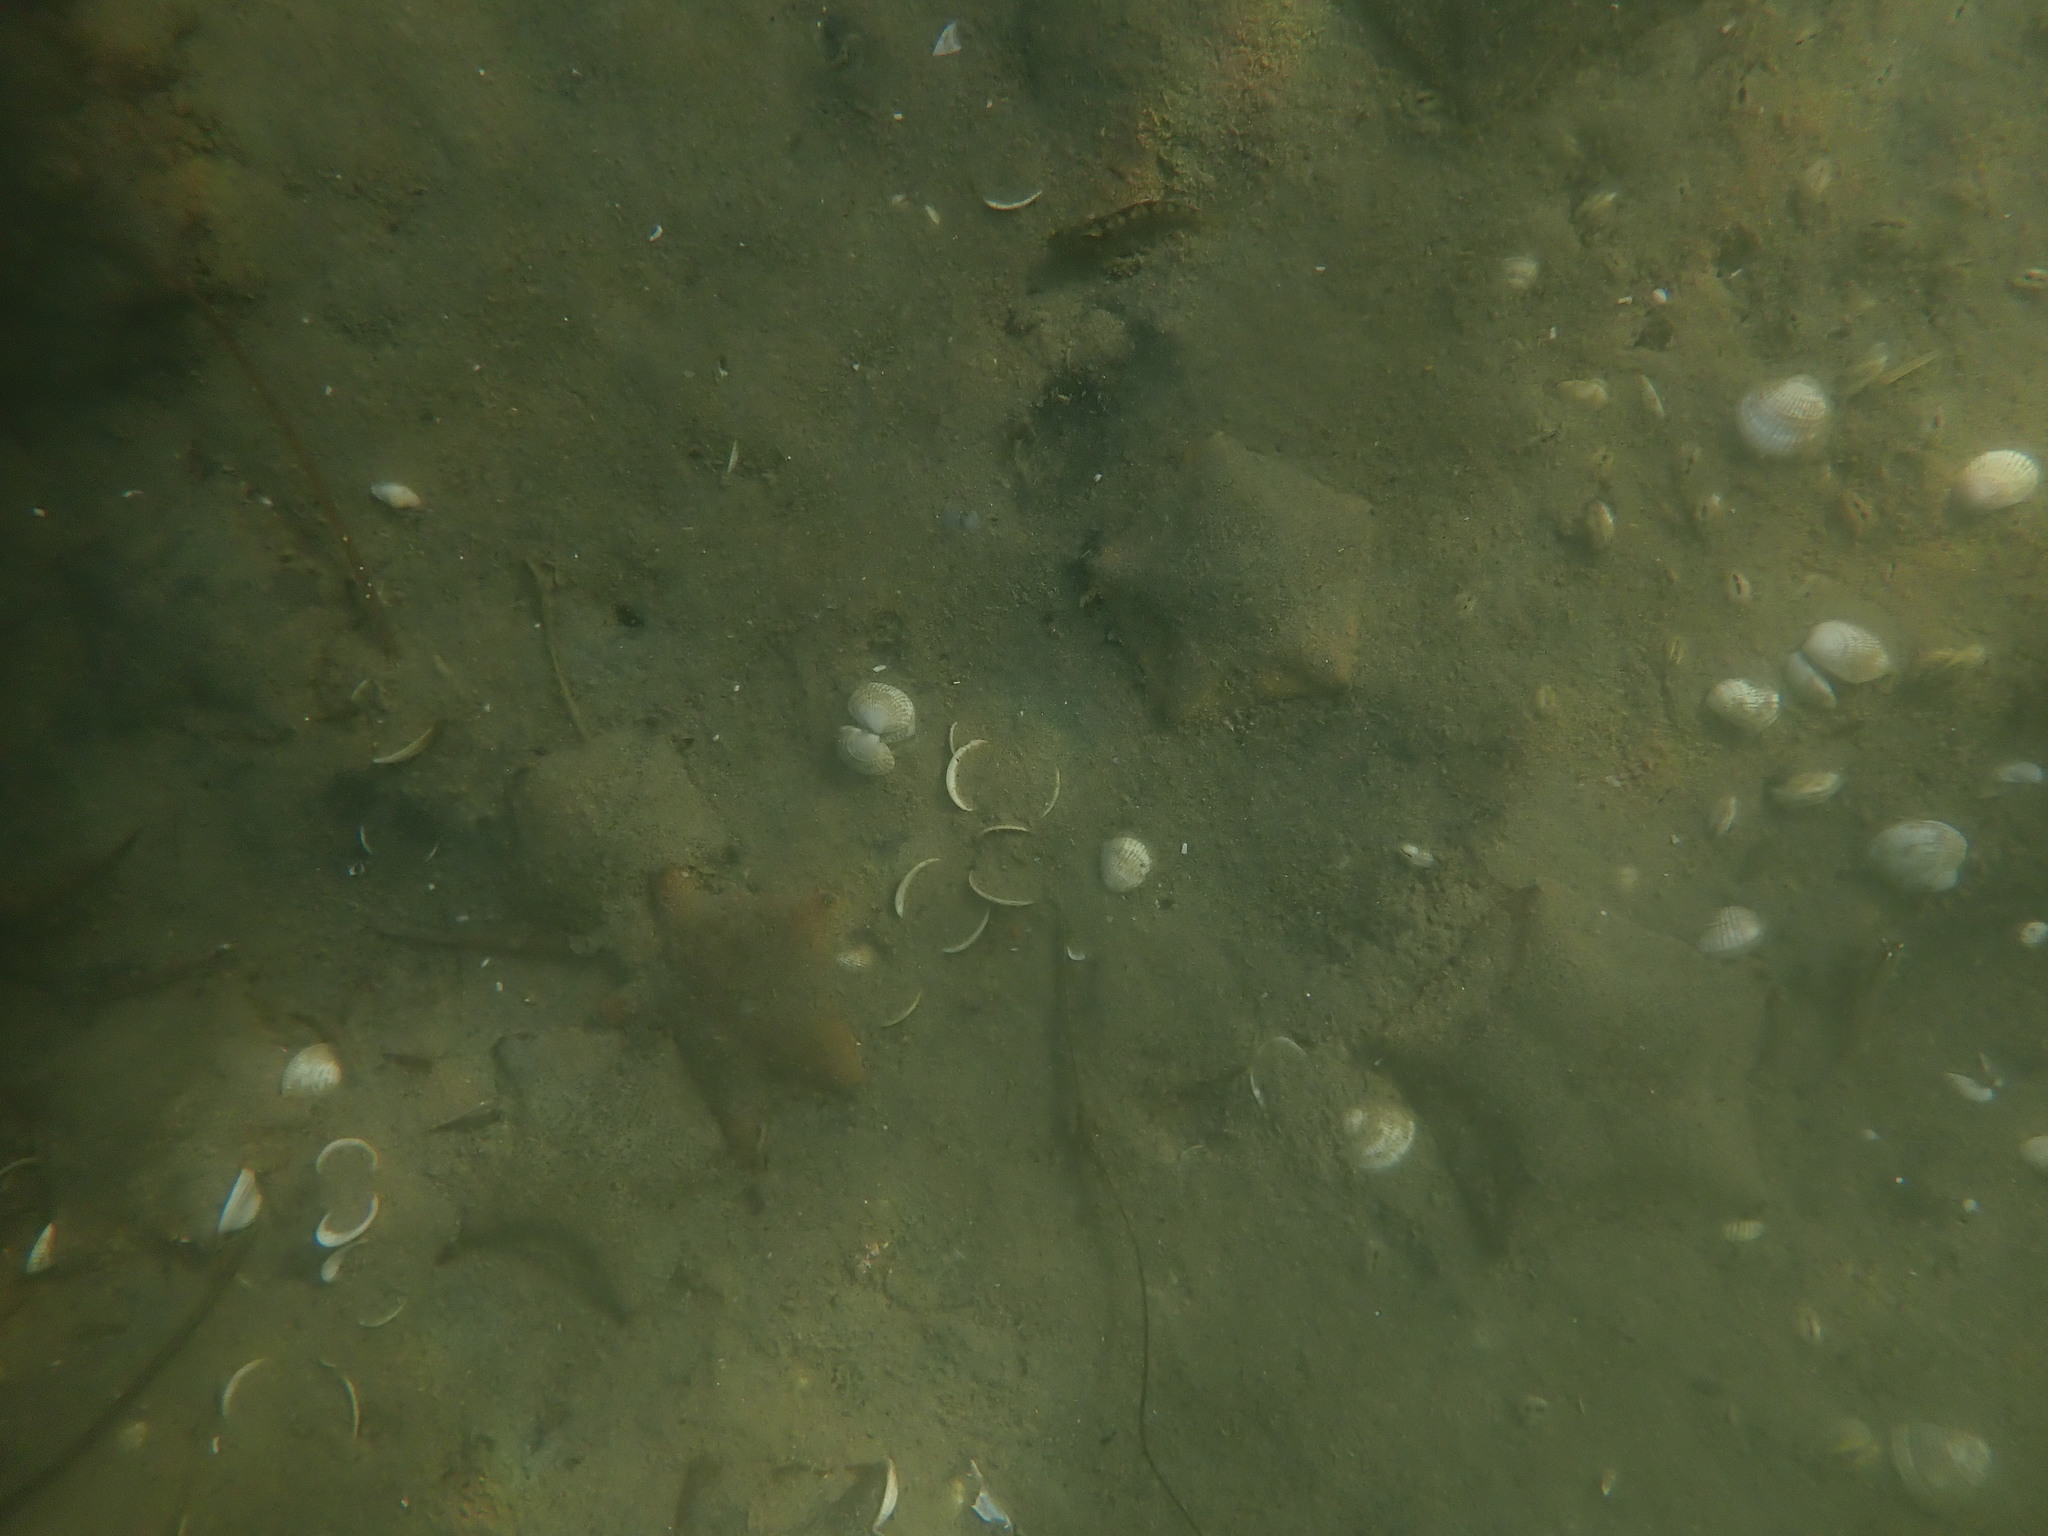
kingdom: Animalia
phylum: Echinodermata
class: Asteroidea
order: Valvatida
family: Asterinidae
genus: Patiriella
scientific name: Patiriella regularis
